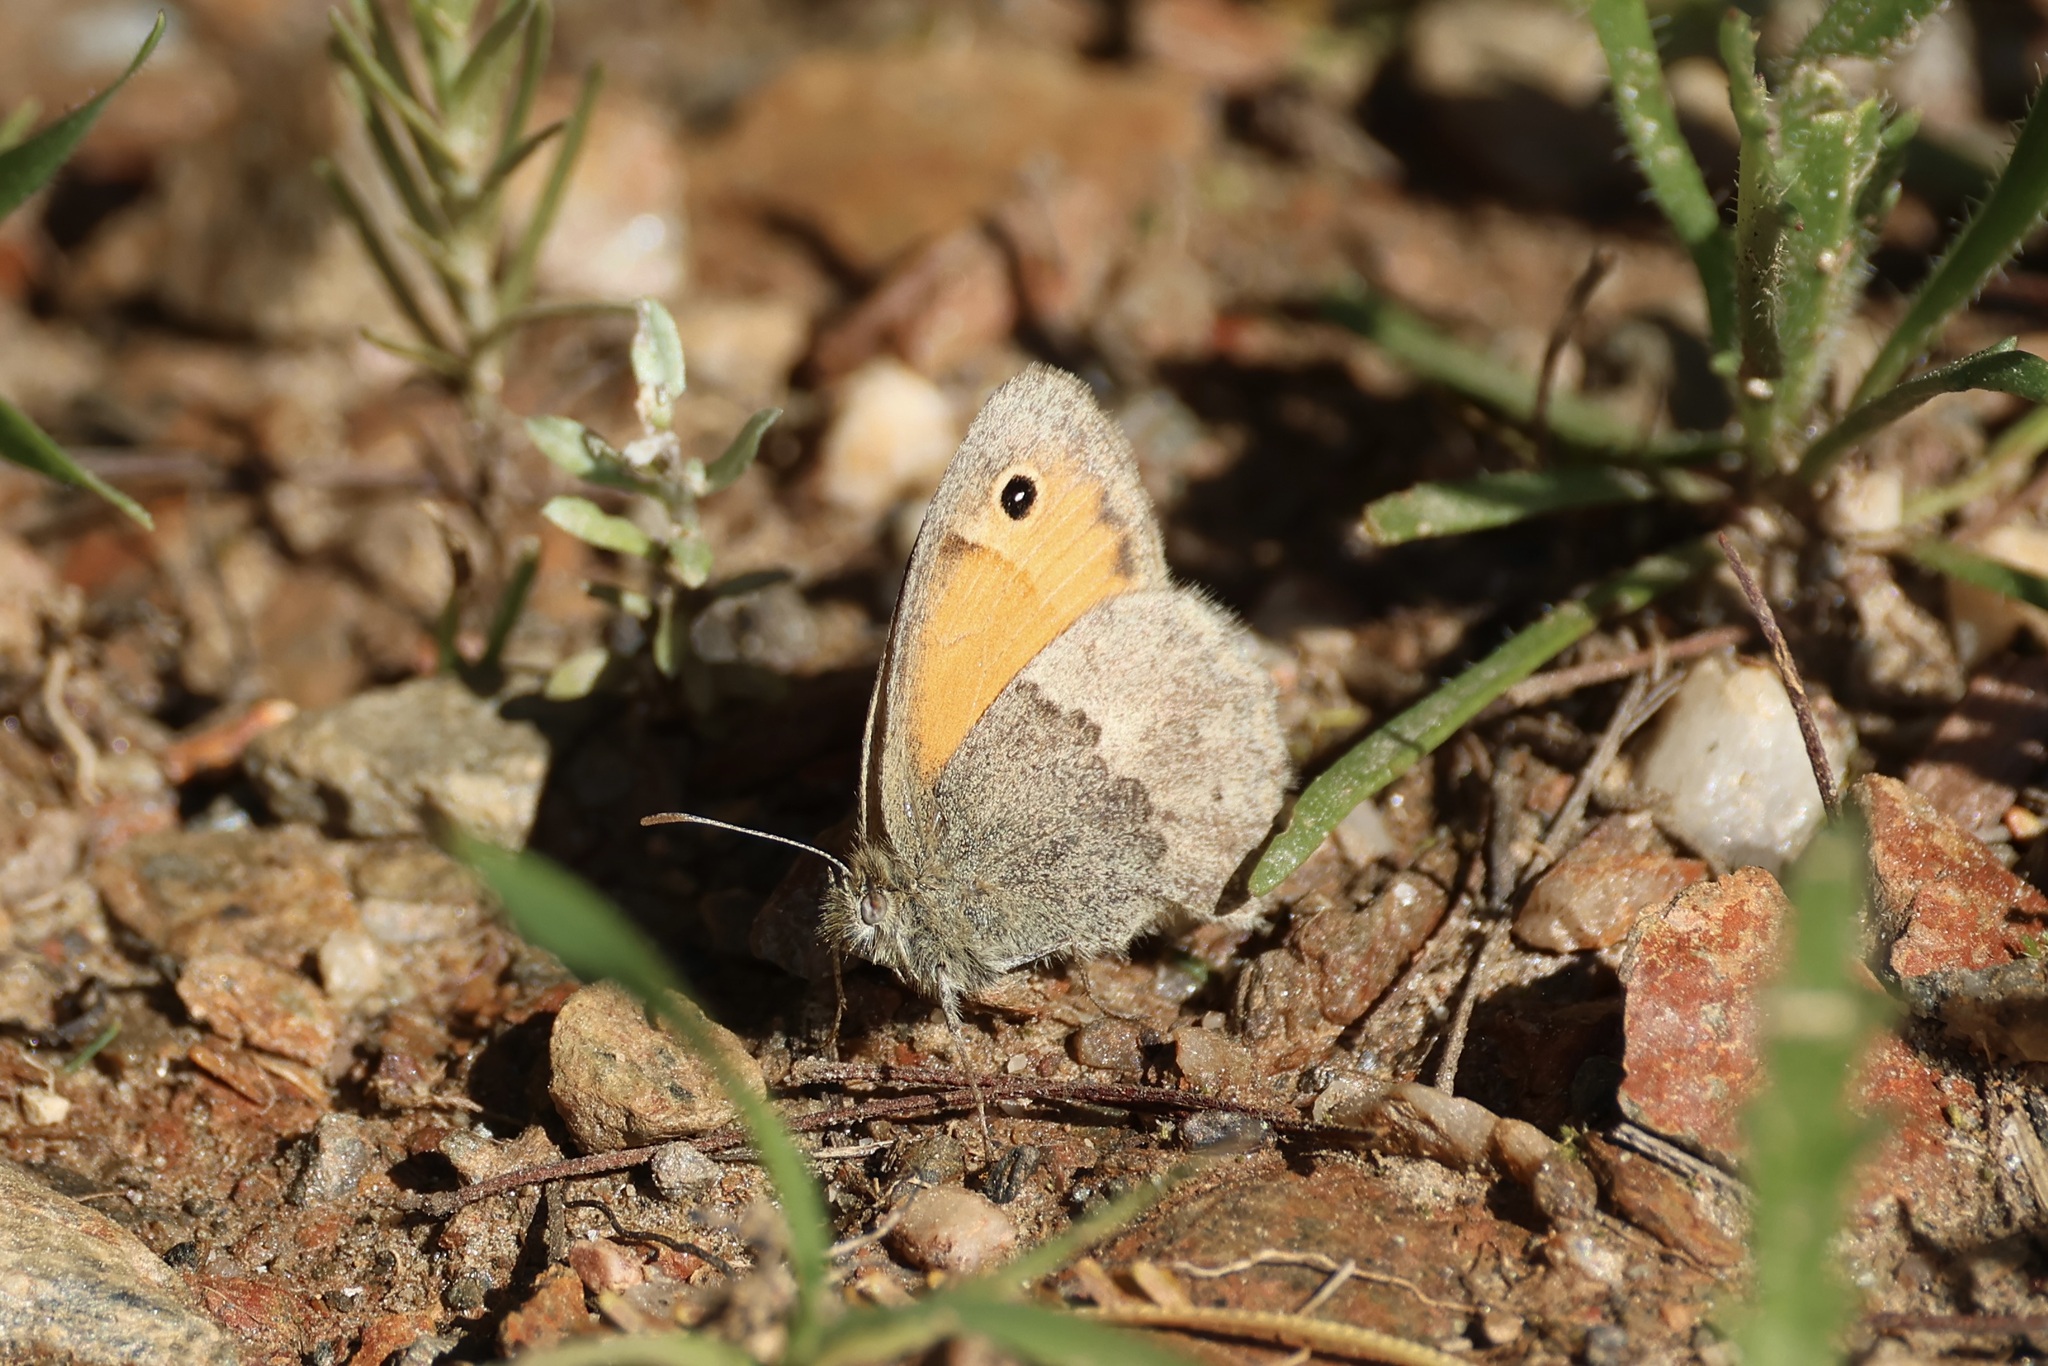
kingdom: Animalia
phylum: Arthropoda
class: Insecta
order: Lepidoptera
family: Nymphalidae
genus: Coenonympha
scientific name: Coenonympha pamphilus
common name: Small heath
